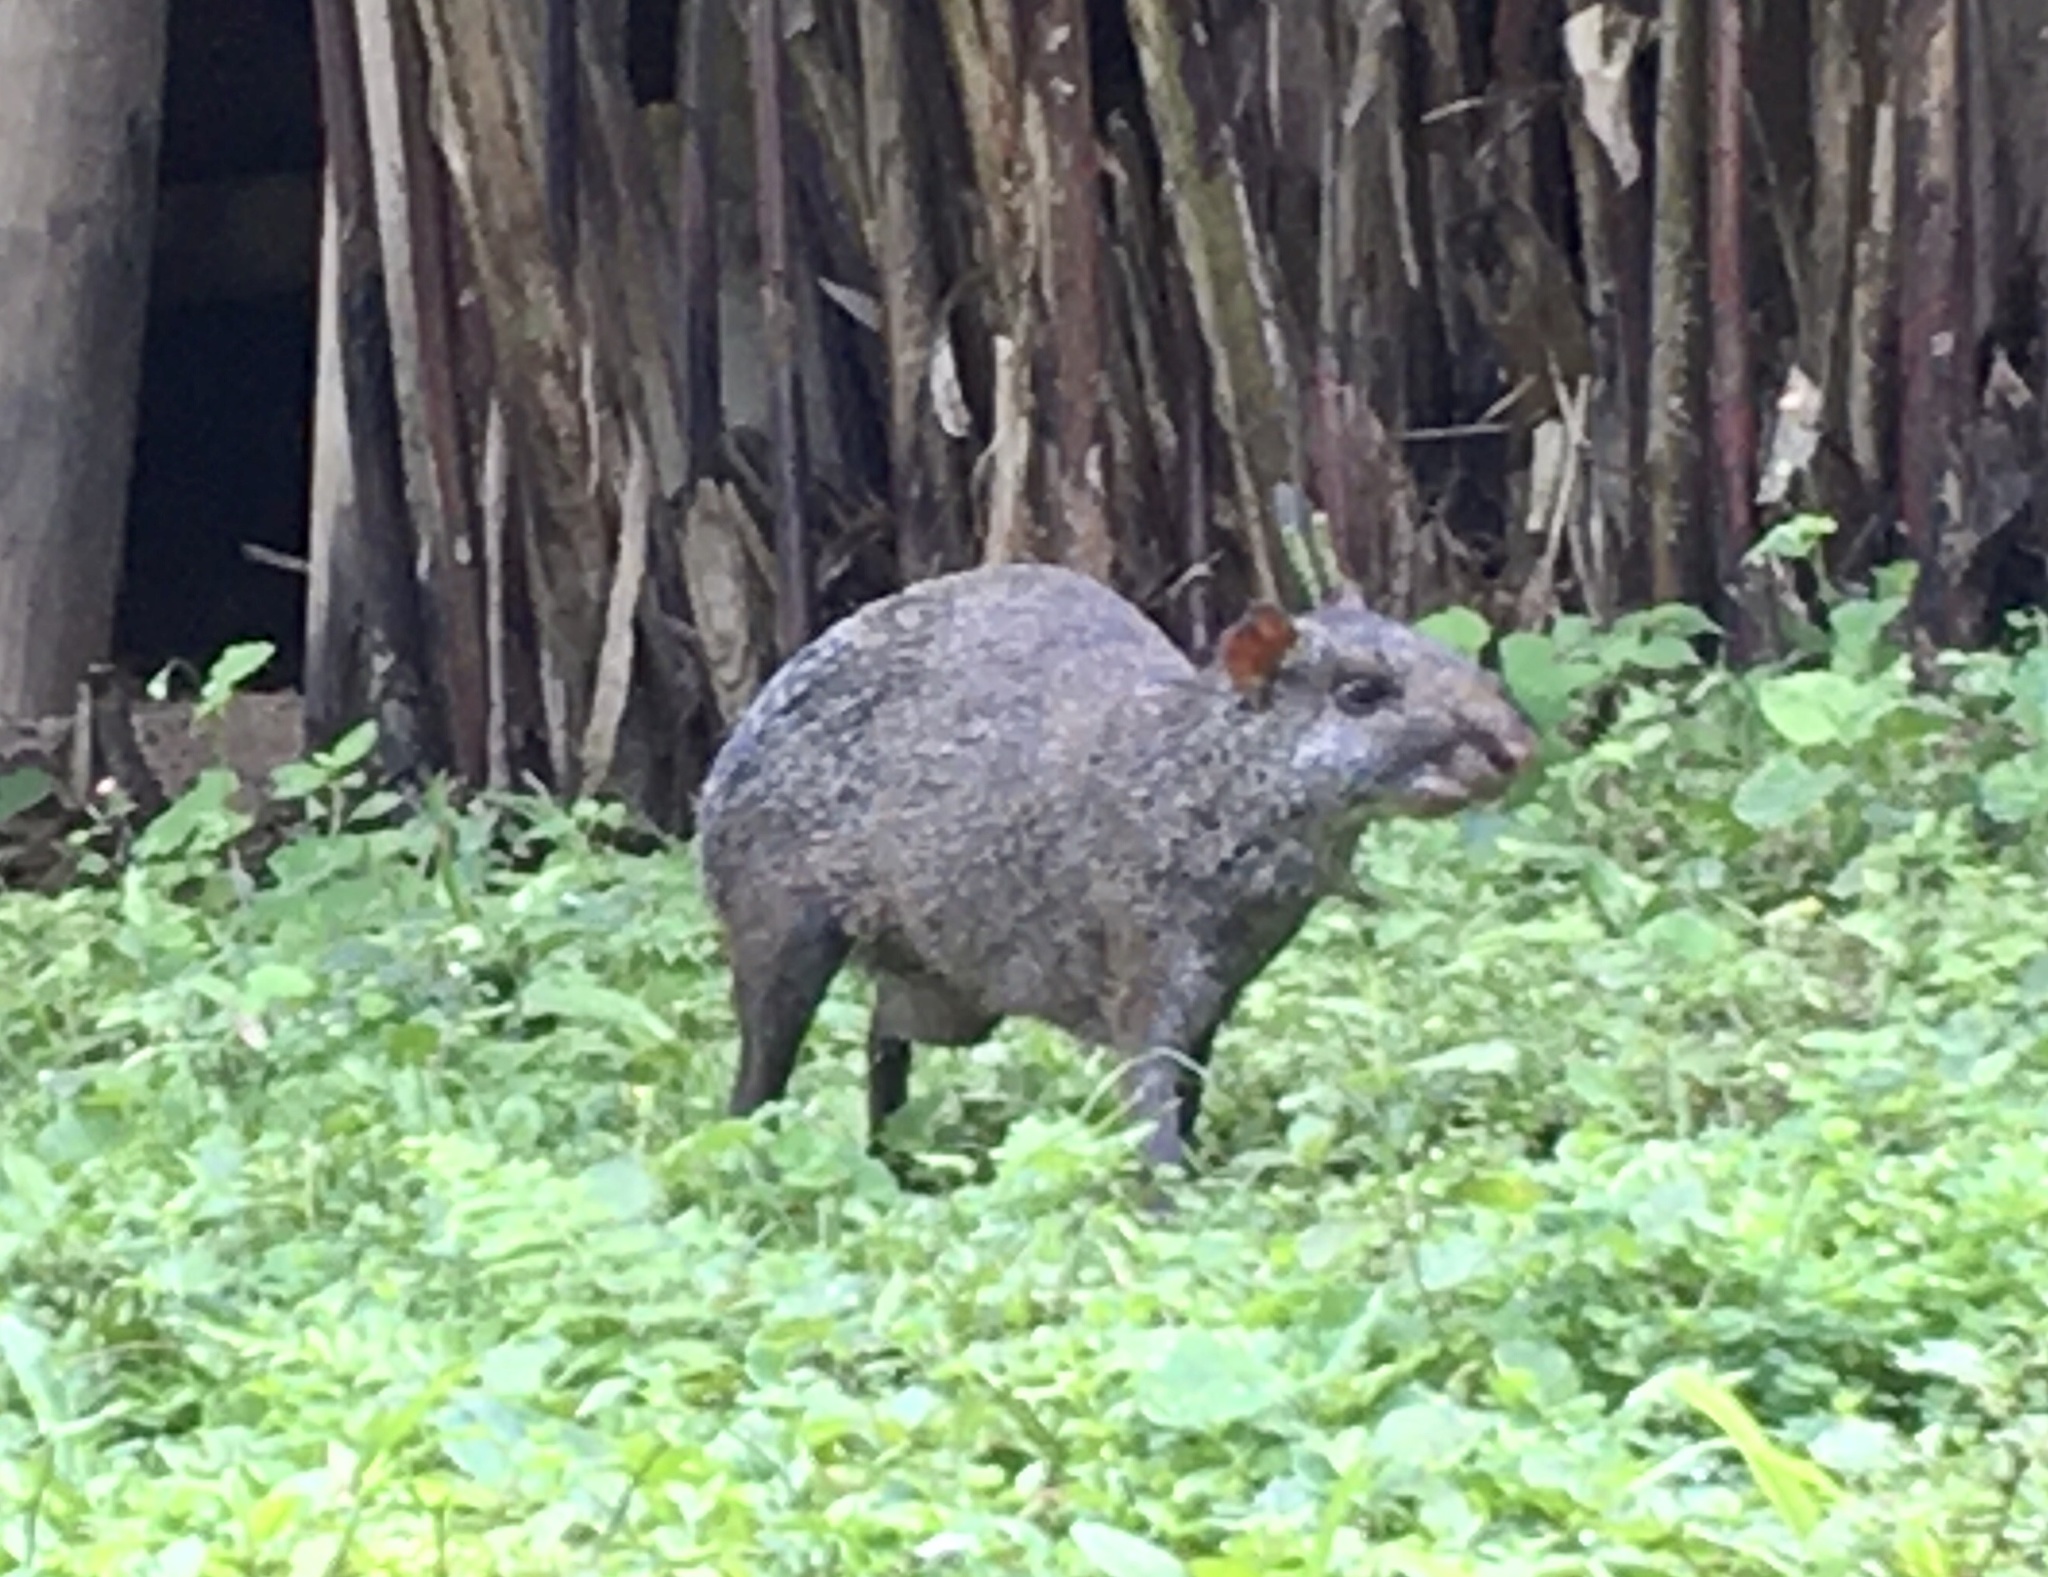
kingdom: Animalia
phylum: Chordata
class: Mammalia
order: Rodentia
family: Dasyproctidae
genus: Dasyprocta
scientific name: Dasyprocta punctata
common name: Central american agouti
